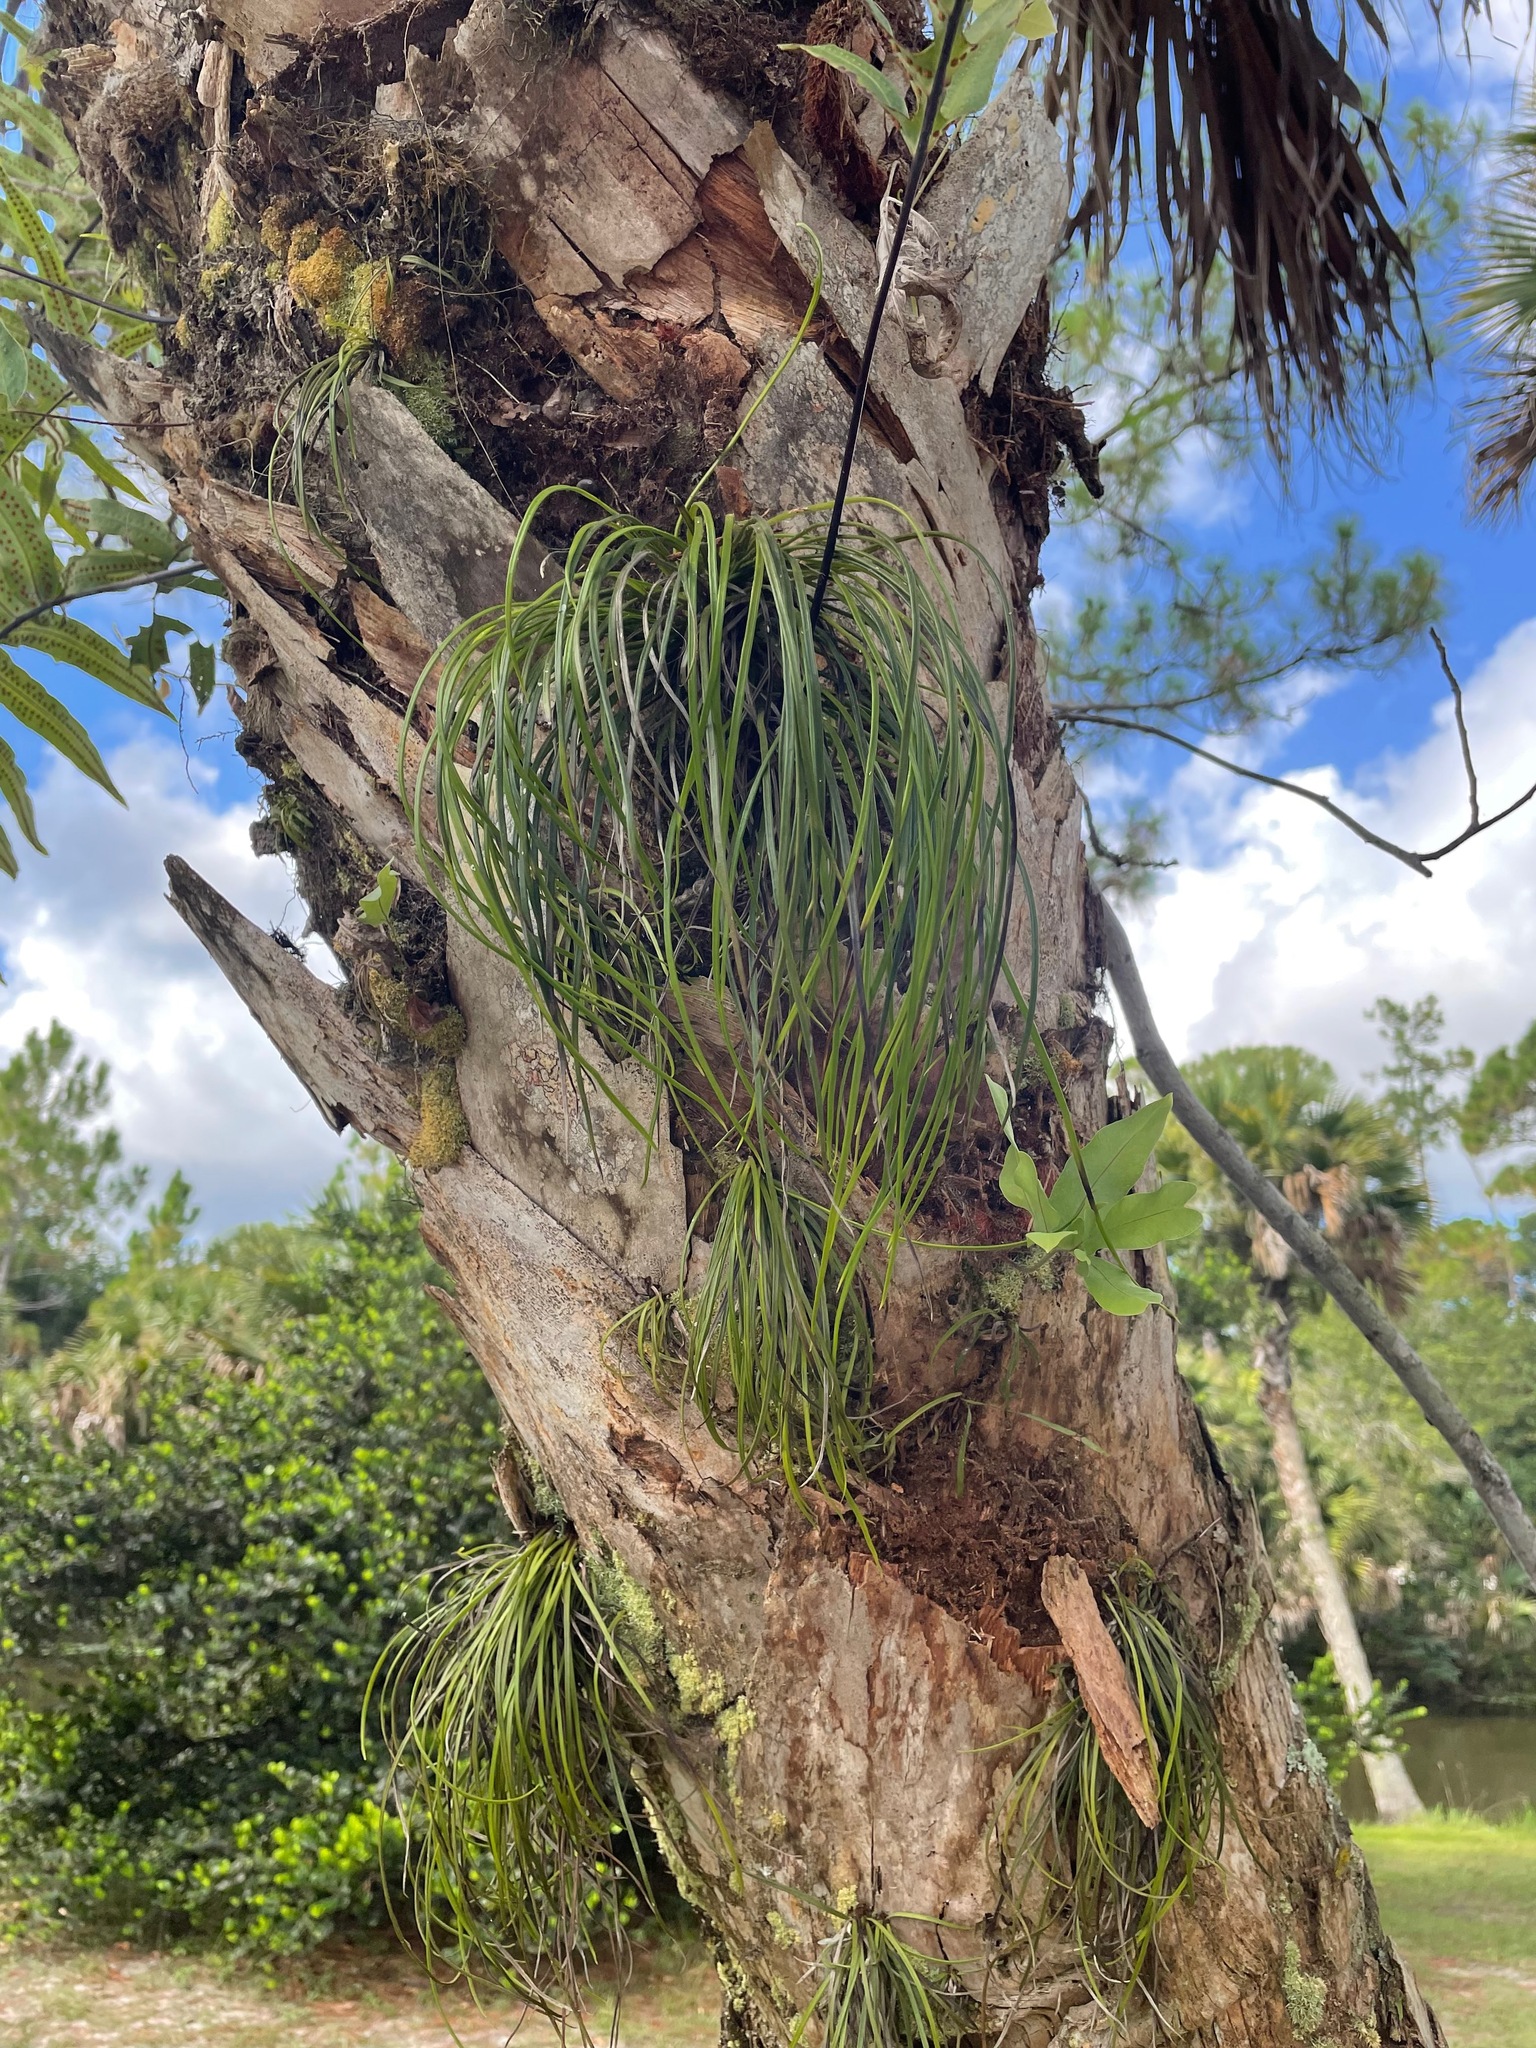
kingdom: Plantae
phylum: Tracheophyta
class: Polypodiopsida
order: Polypodiales
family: Pteridaceae
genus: Vittaria
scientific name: Vittaria lineata
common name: Shoestring fern
